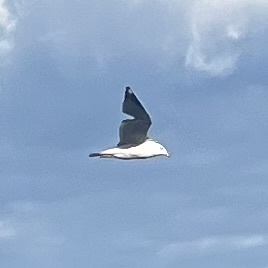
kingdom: Animalia
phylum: Chordata
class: Aves
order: Charadriiformes
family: Laridae
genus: Larus
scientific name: Larus delawarensis
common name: Ring-billed gull
